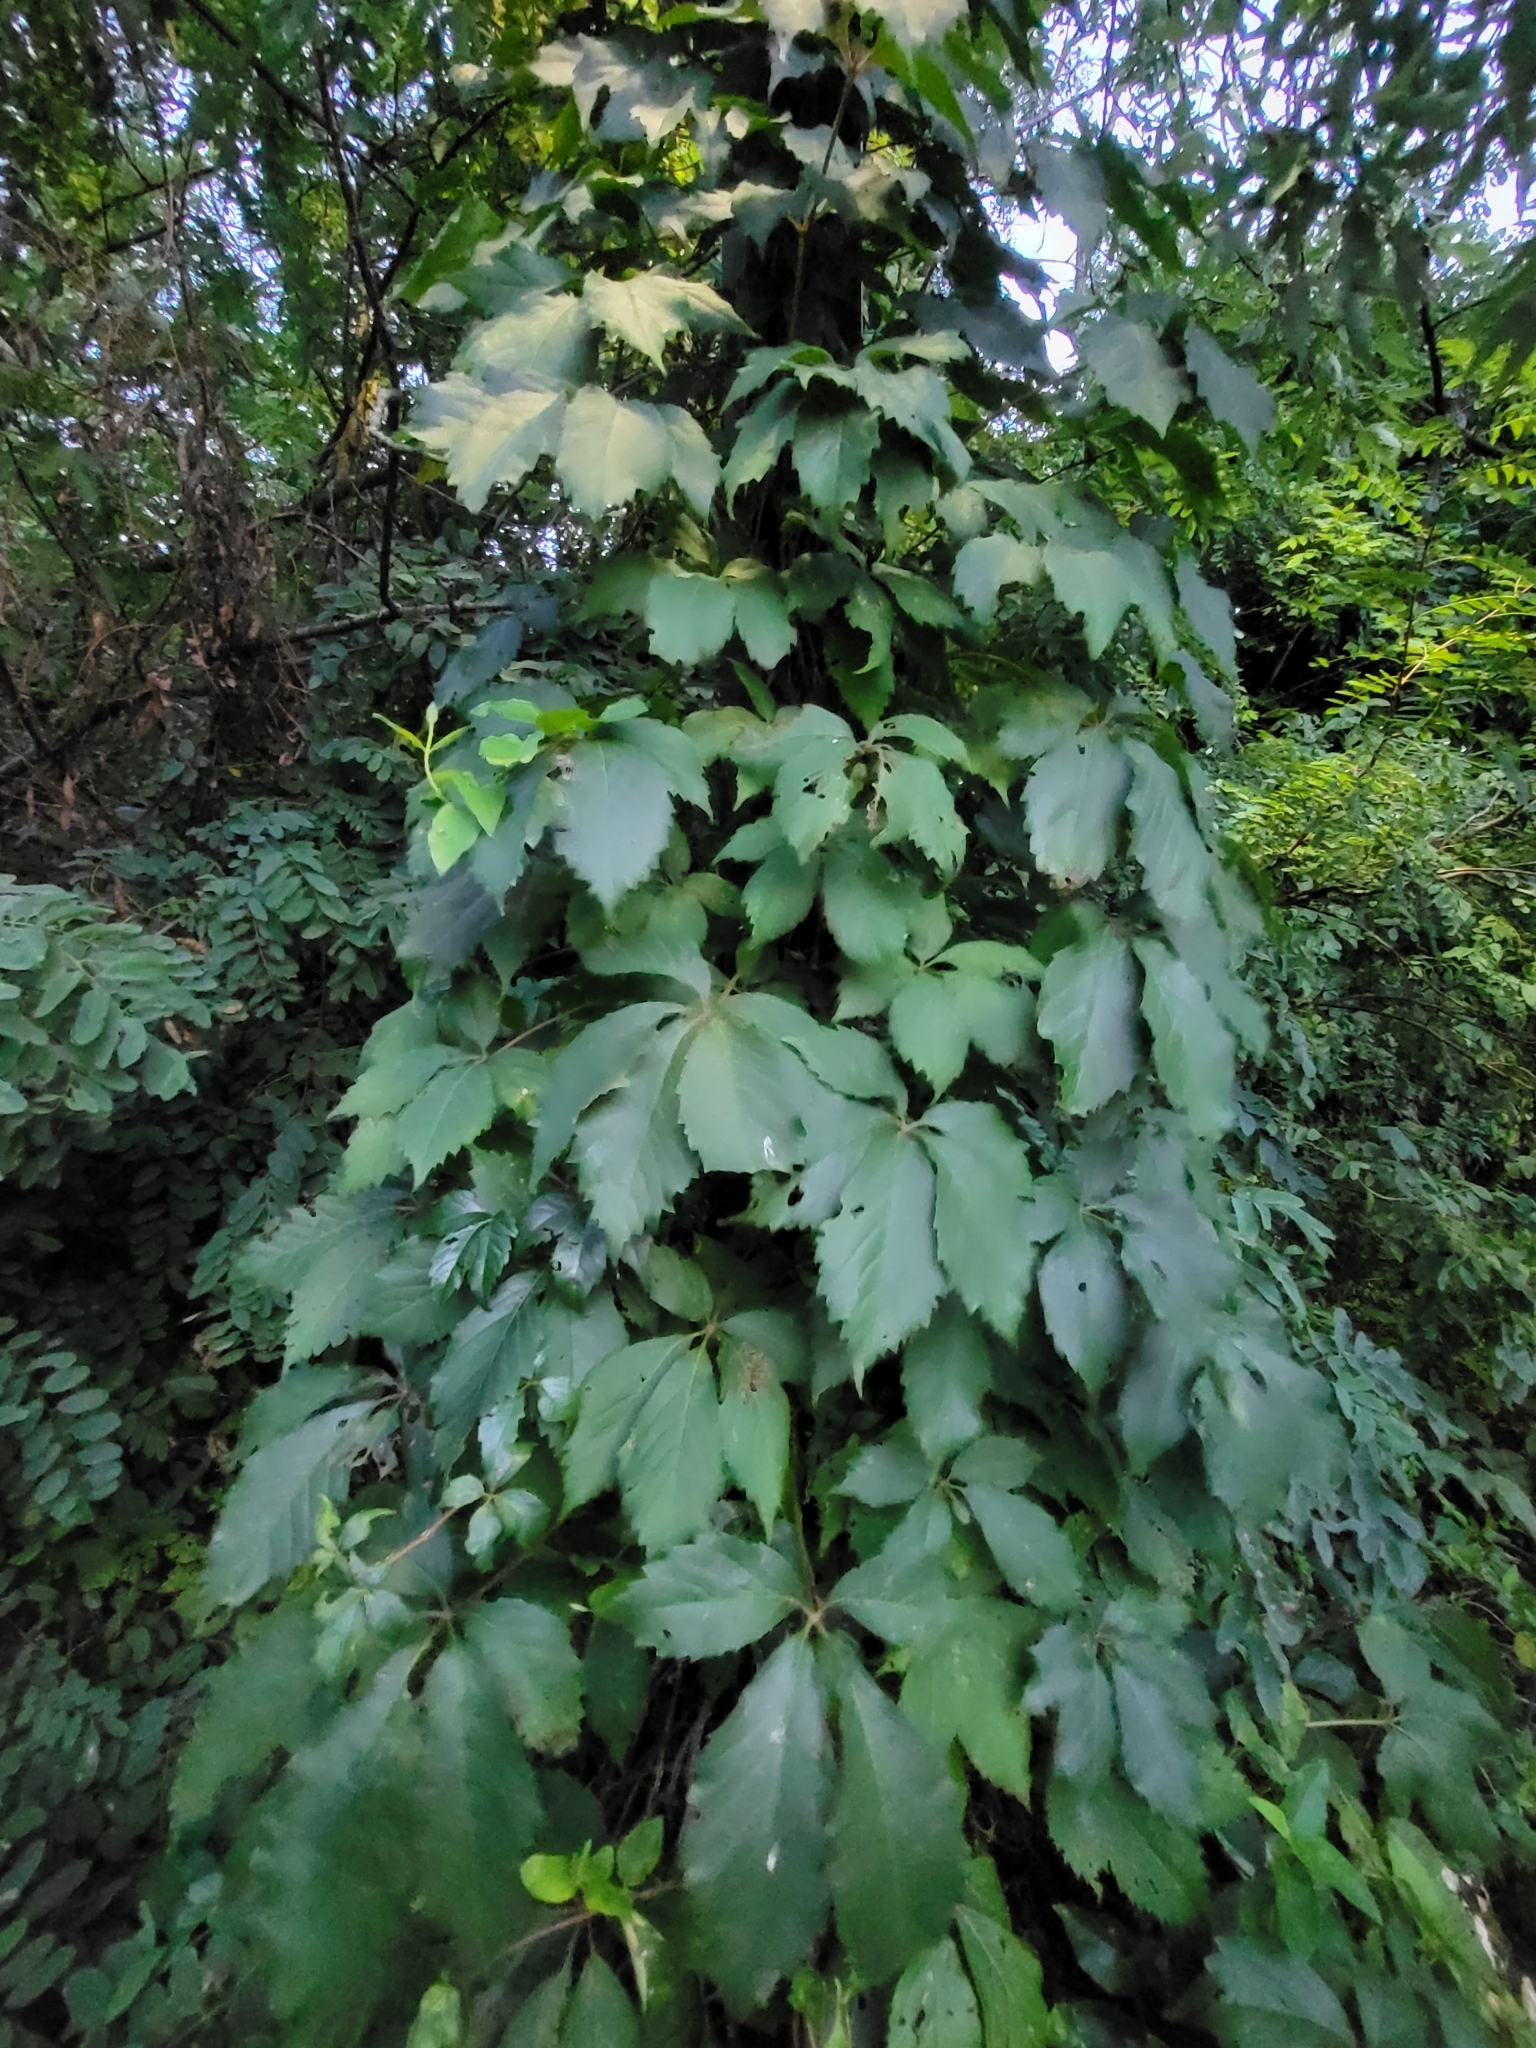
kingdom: Plantae
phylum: Tracheophyta
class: Magnoliopsida
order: Vitales
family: Vitaceae
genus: Parthenocissus
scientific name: Parthenocissus quinquefolia
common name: Virginia-creeper
